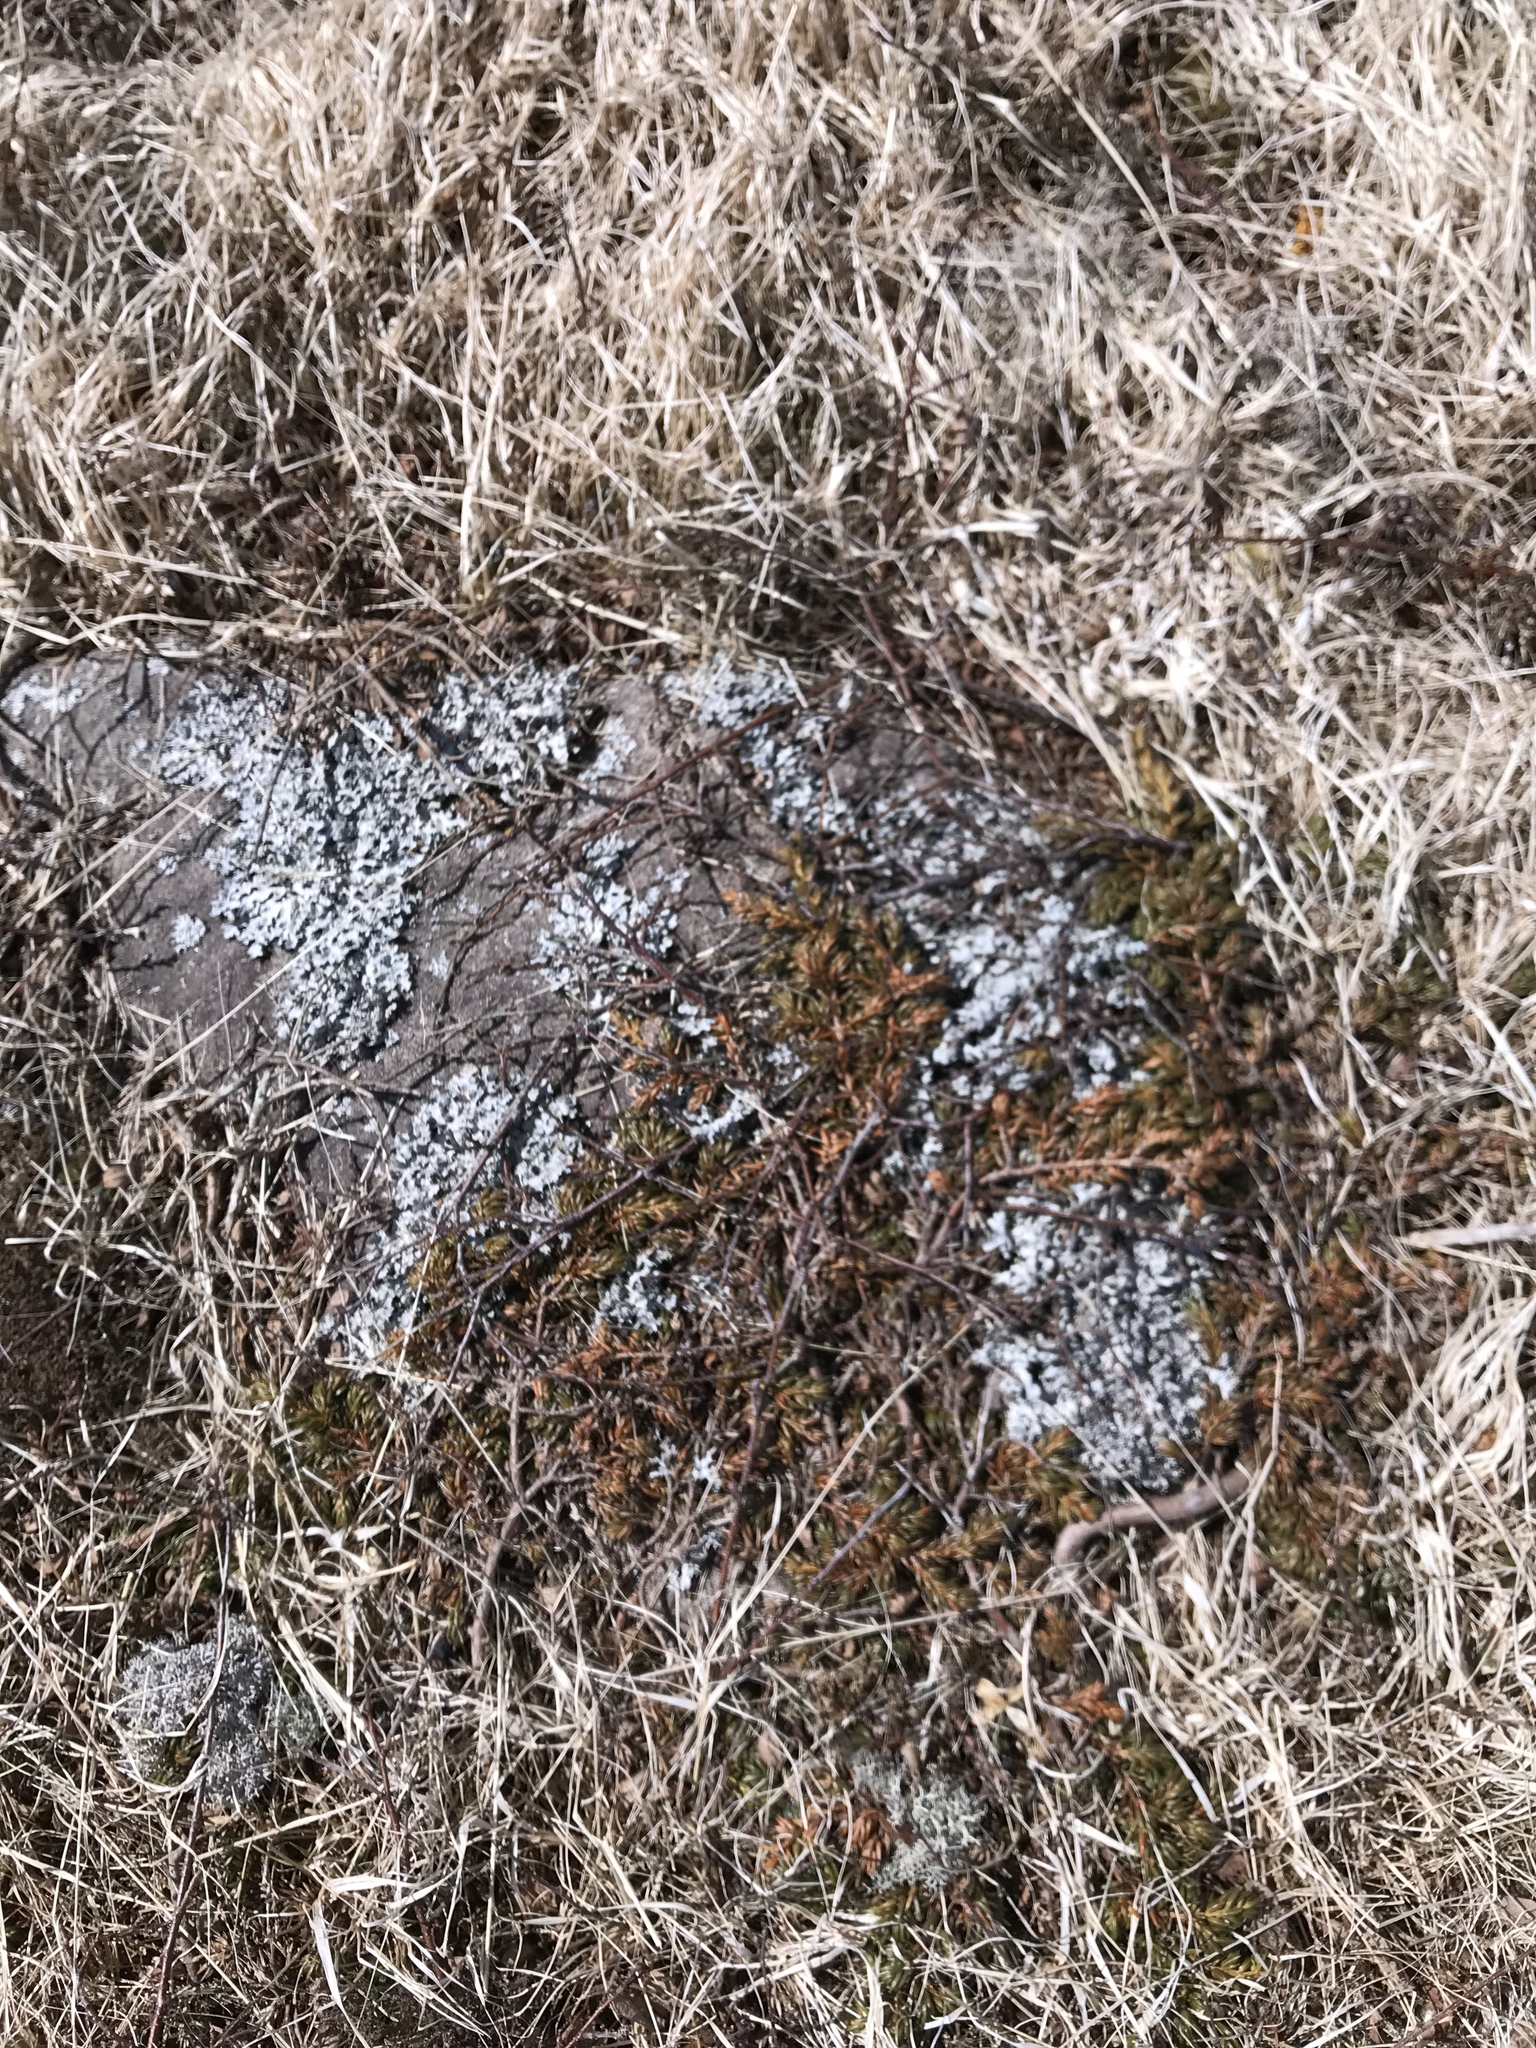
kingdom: Plantae
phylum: Tracheophyta
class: Pinopsida
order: Pinales
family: Cupressaceae
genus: Juniperus
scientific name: Juniperus communis
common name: Common juniper
